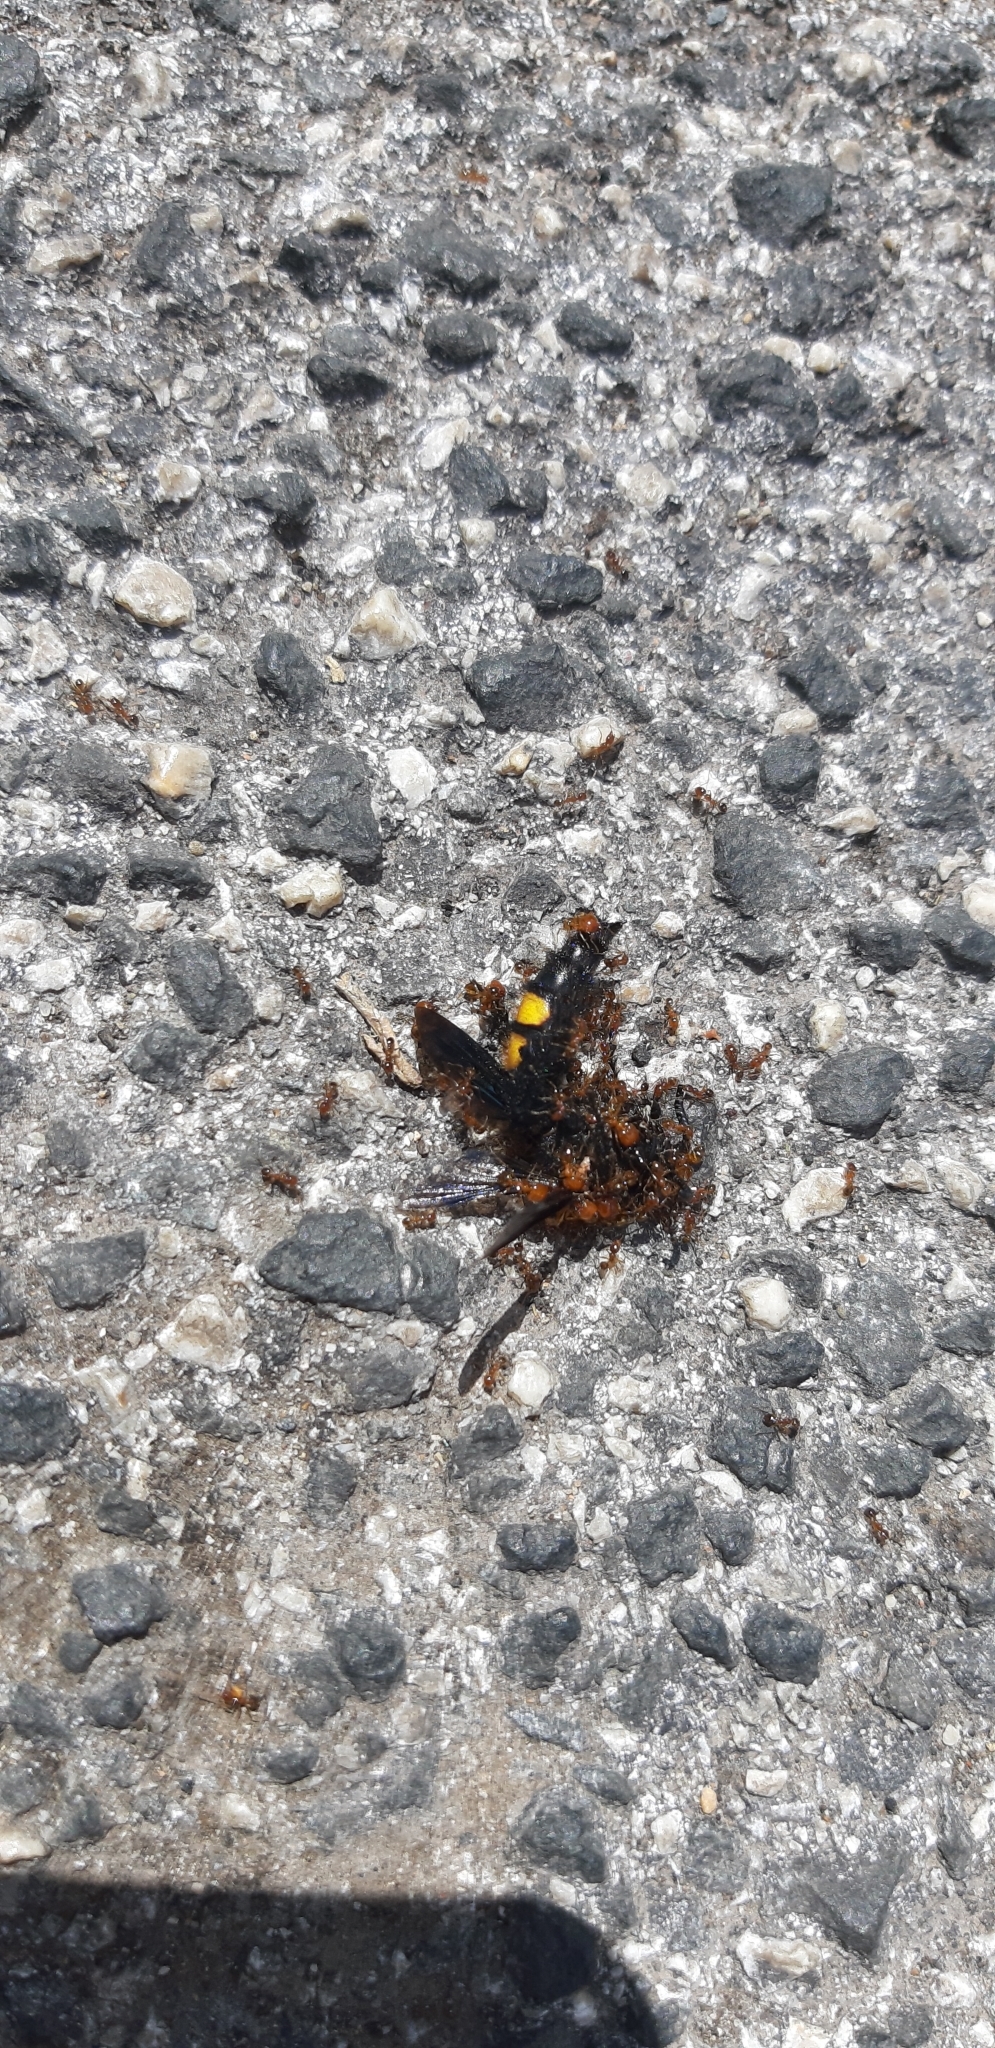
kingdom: Animalia
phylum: Arthropoda
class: Insecta
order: Hymenoptera
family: Scoliidae
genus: Scolia
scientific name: Scolia hirta
